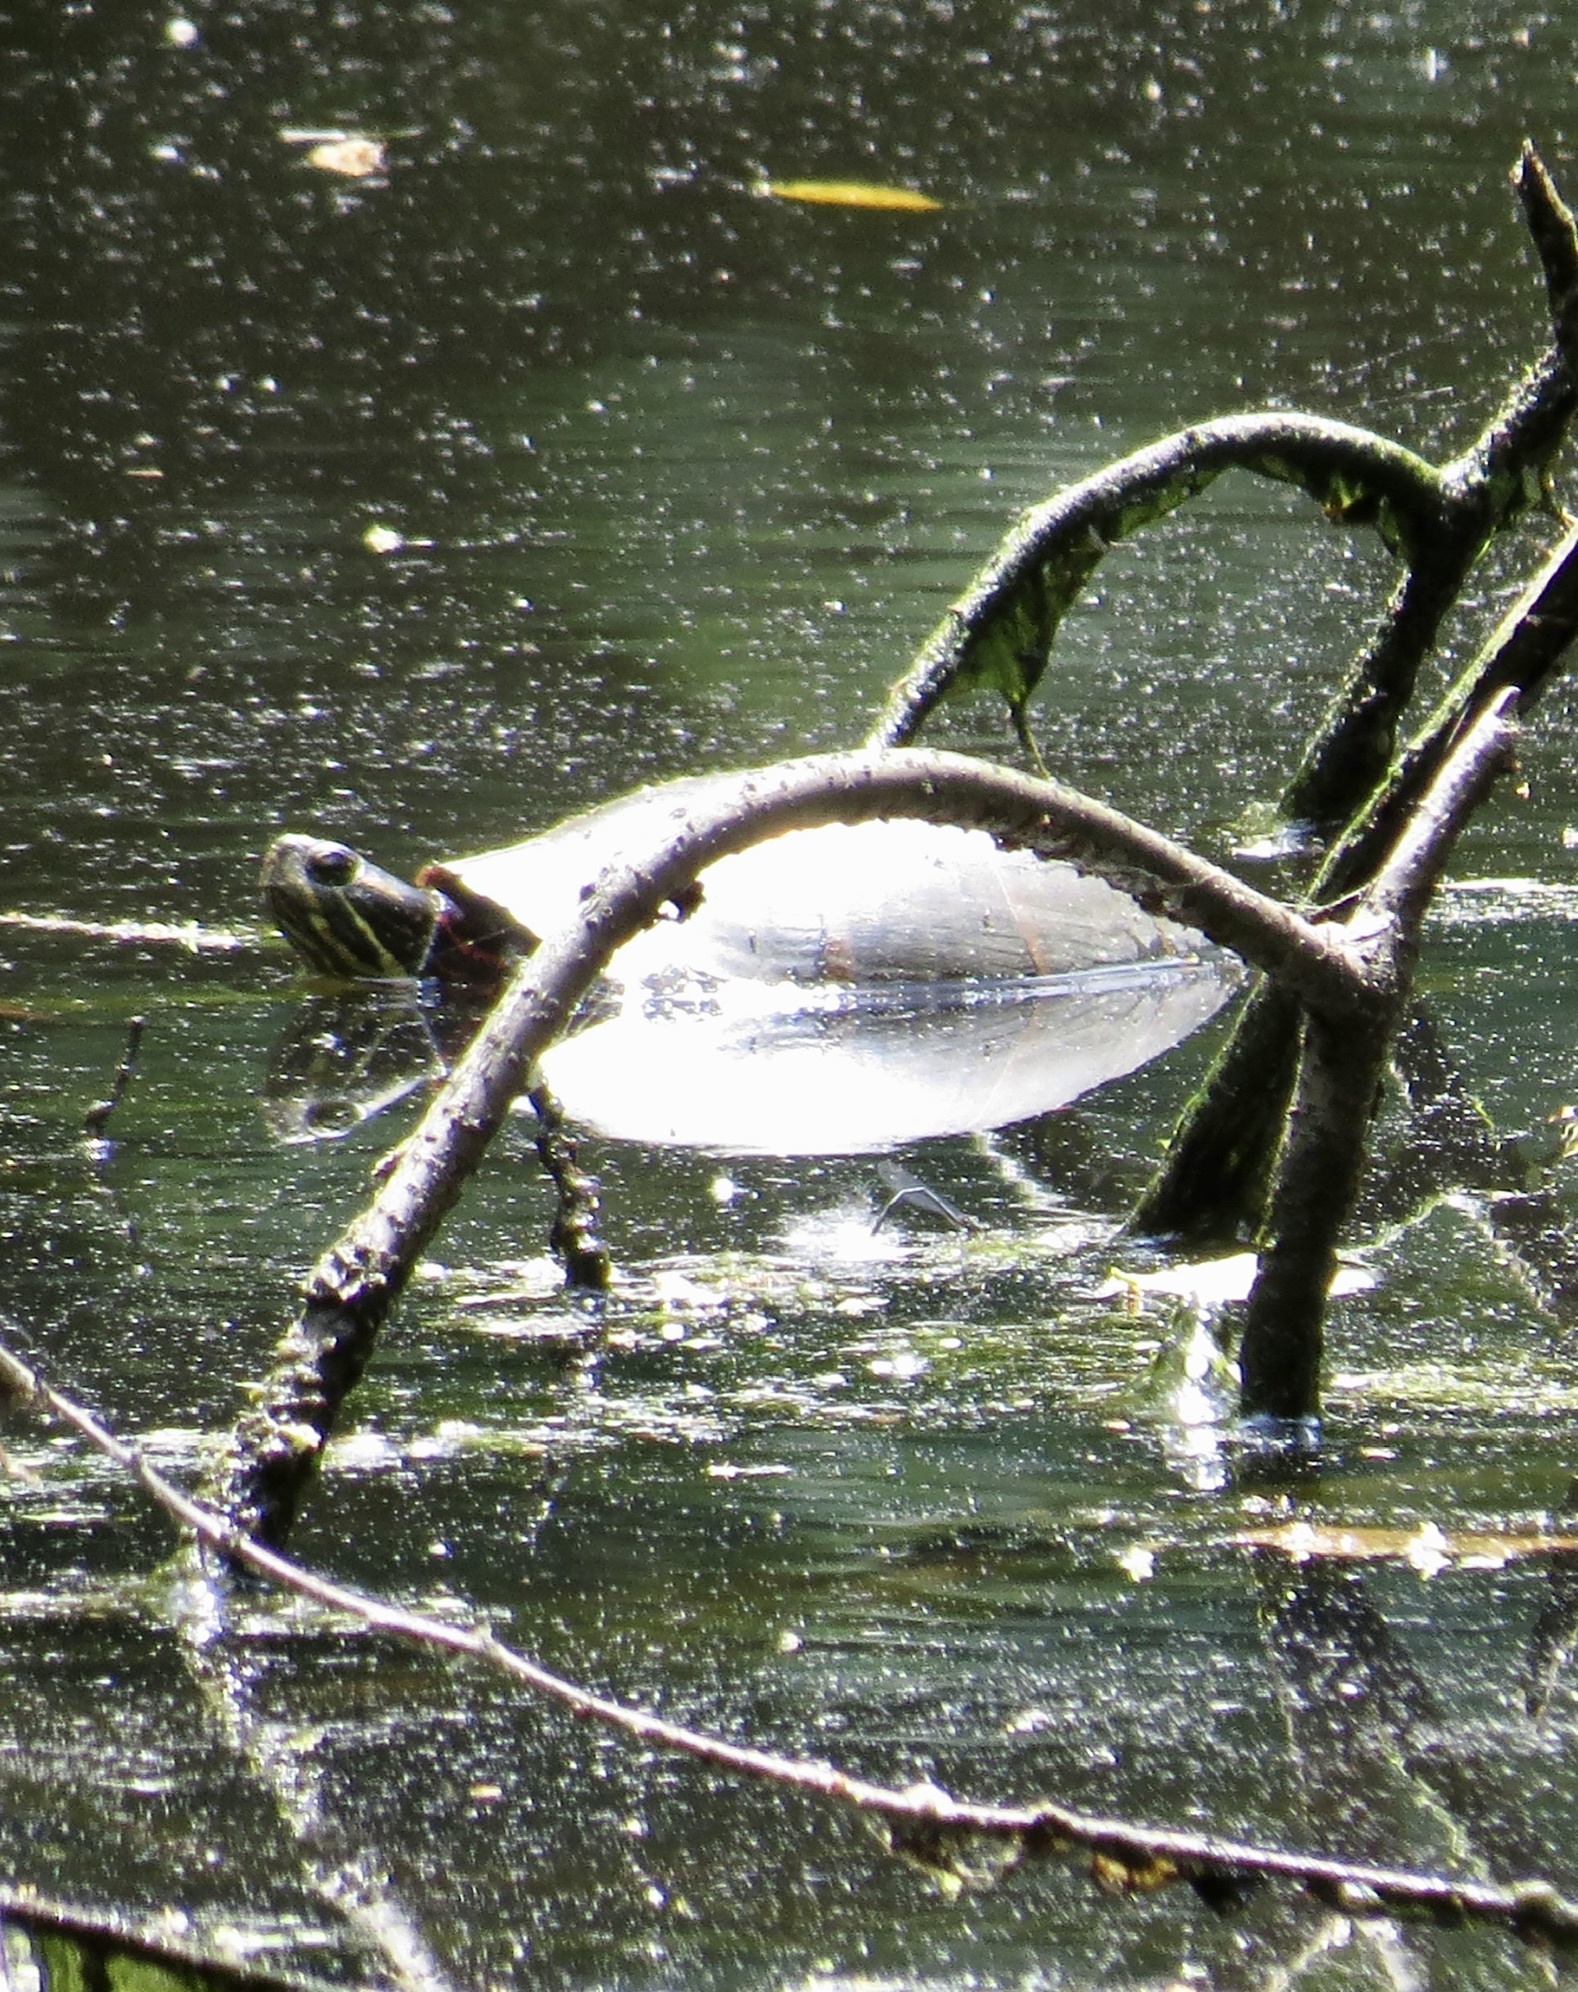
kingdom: Animalia
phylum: Chordata
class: Testudines
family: Emydidae
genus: Chrysemys
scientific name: Chrysemys picta
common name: Painted turtle
